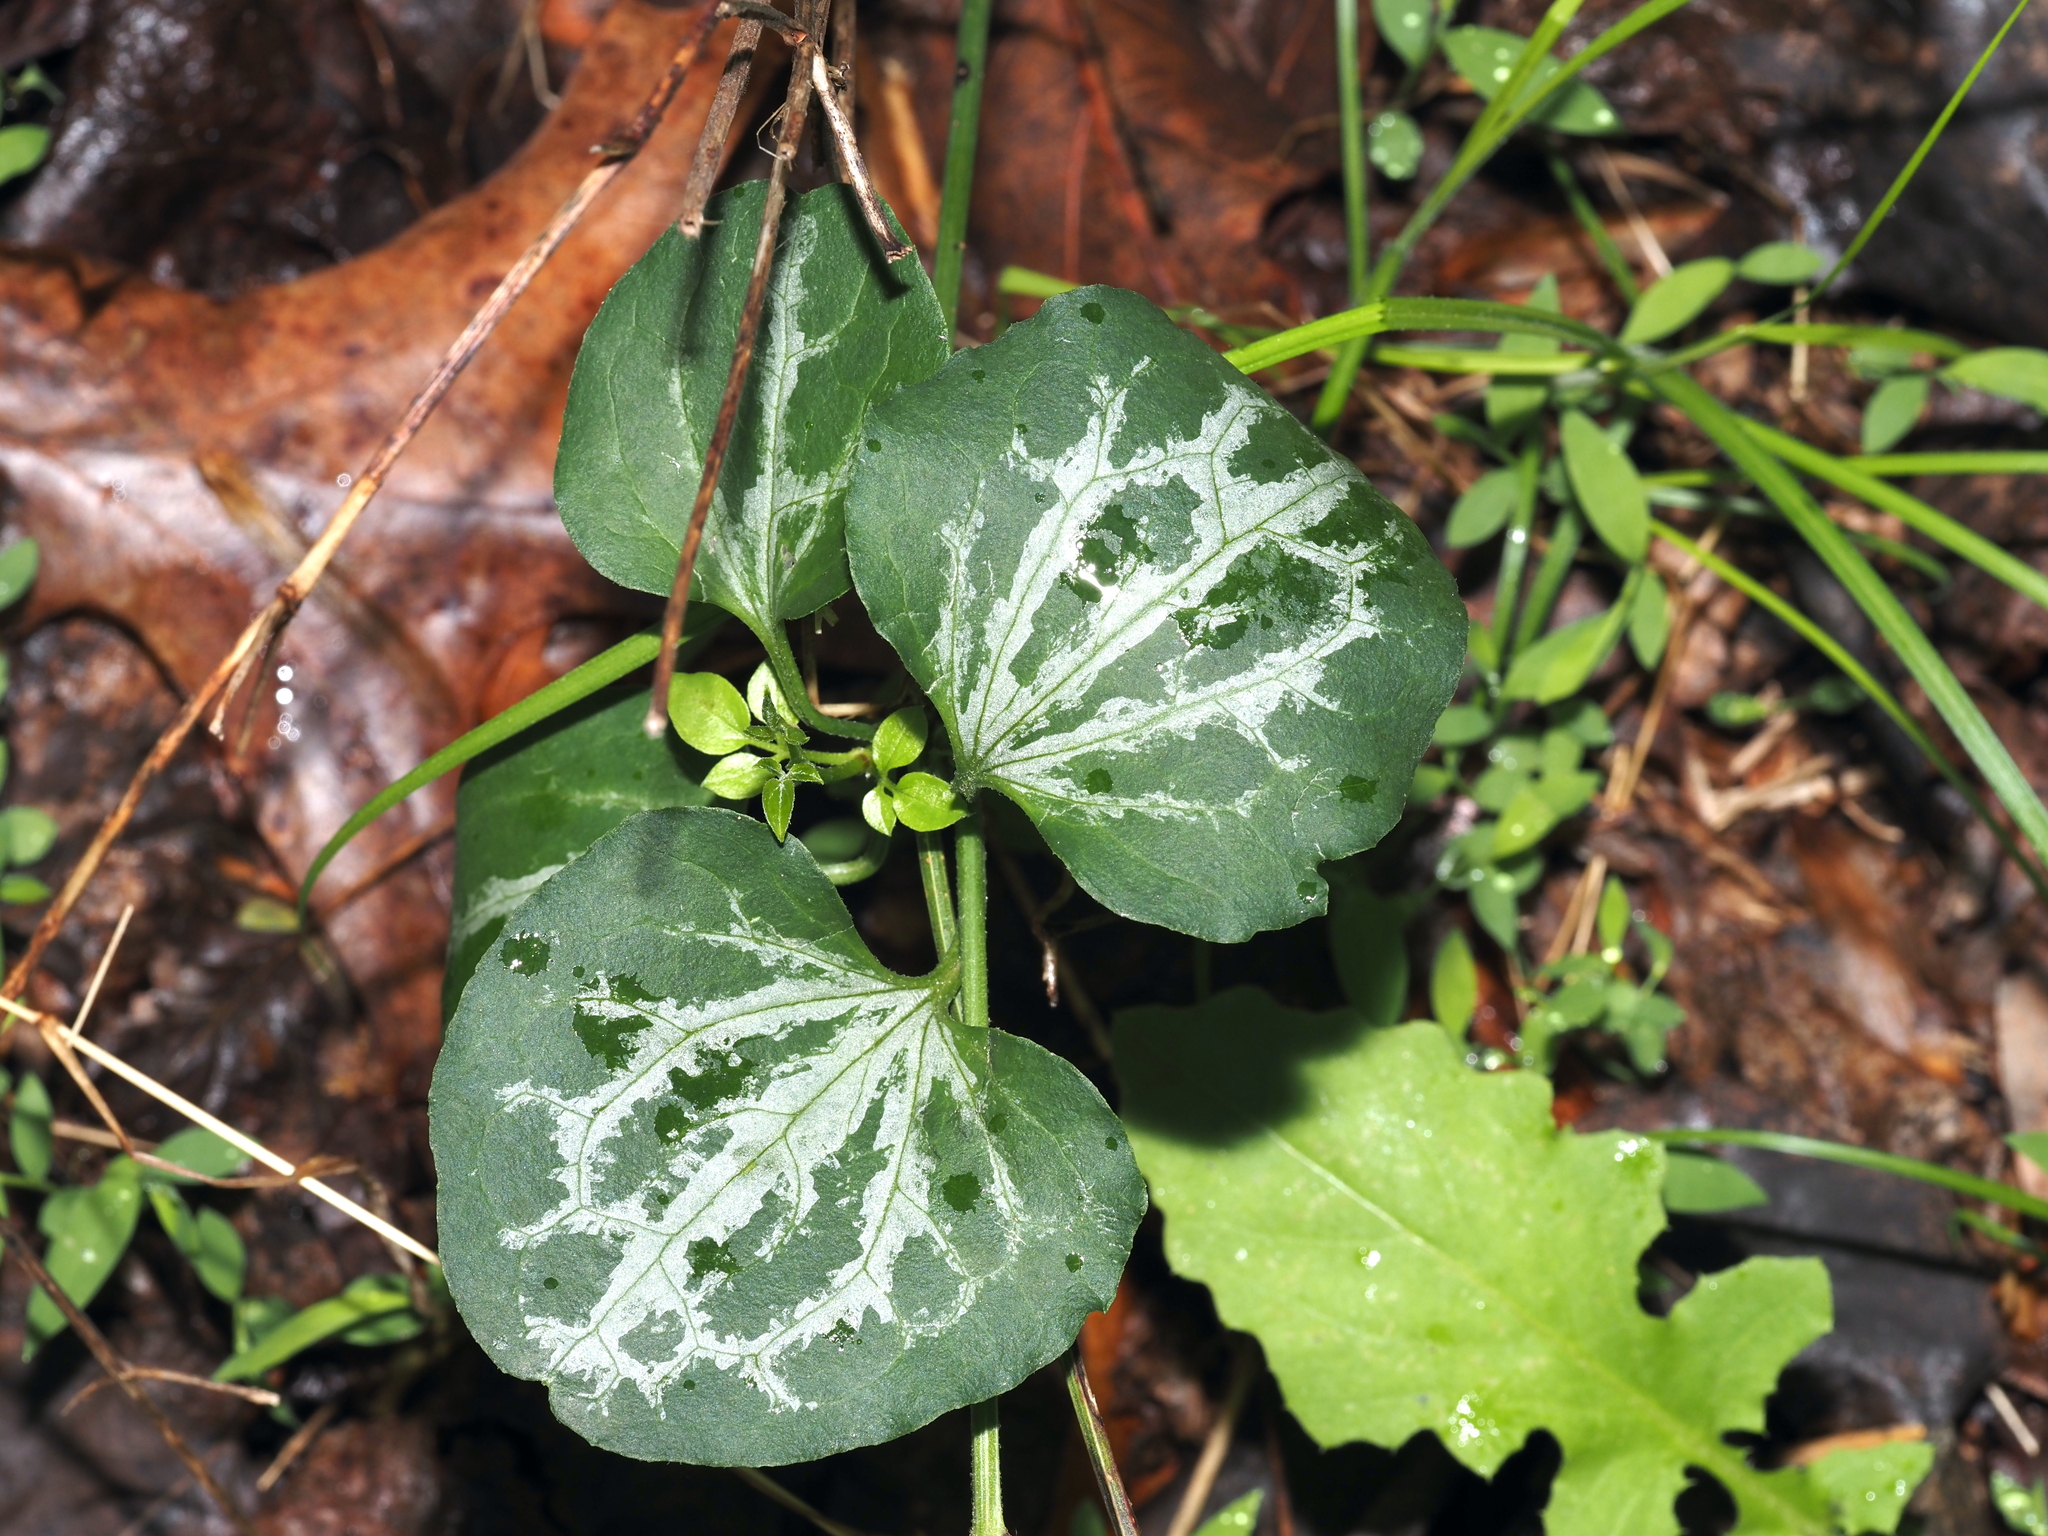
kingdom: Plantae
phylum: Tracheophyta
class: Magnoliopsida
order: Ranunculales
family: Ranunculaceae
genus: Clematis
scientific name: Clematis terniflora
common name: Sweet autumn clematis
